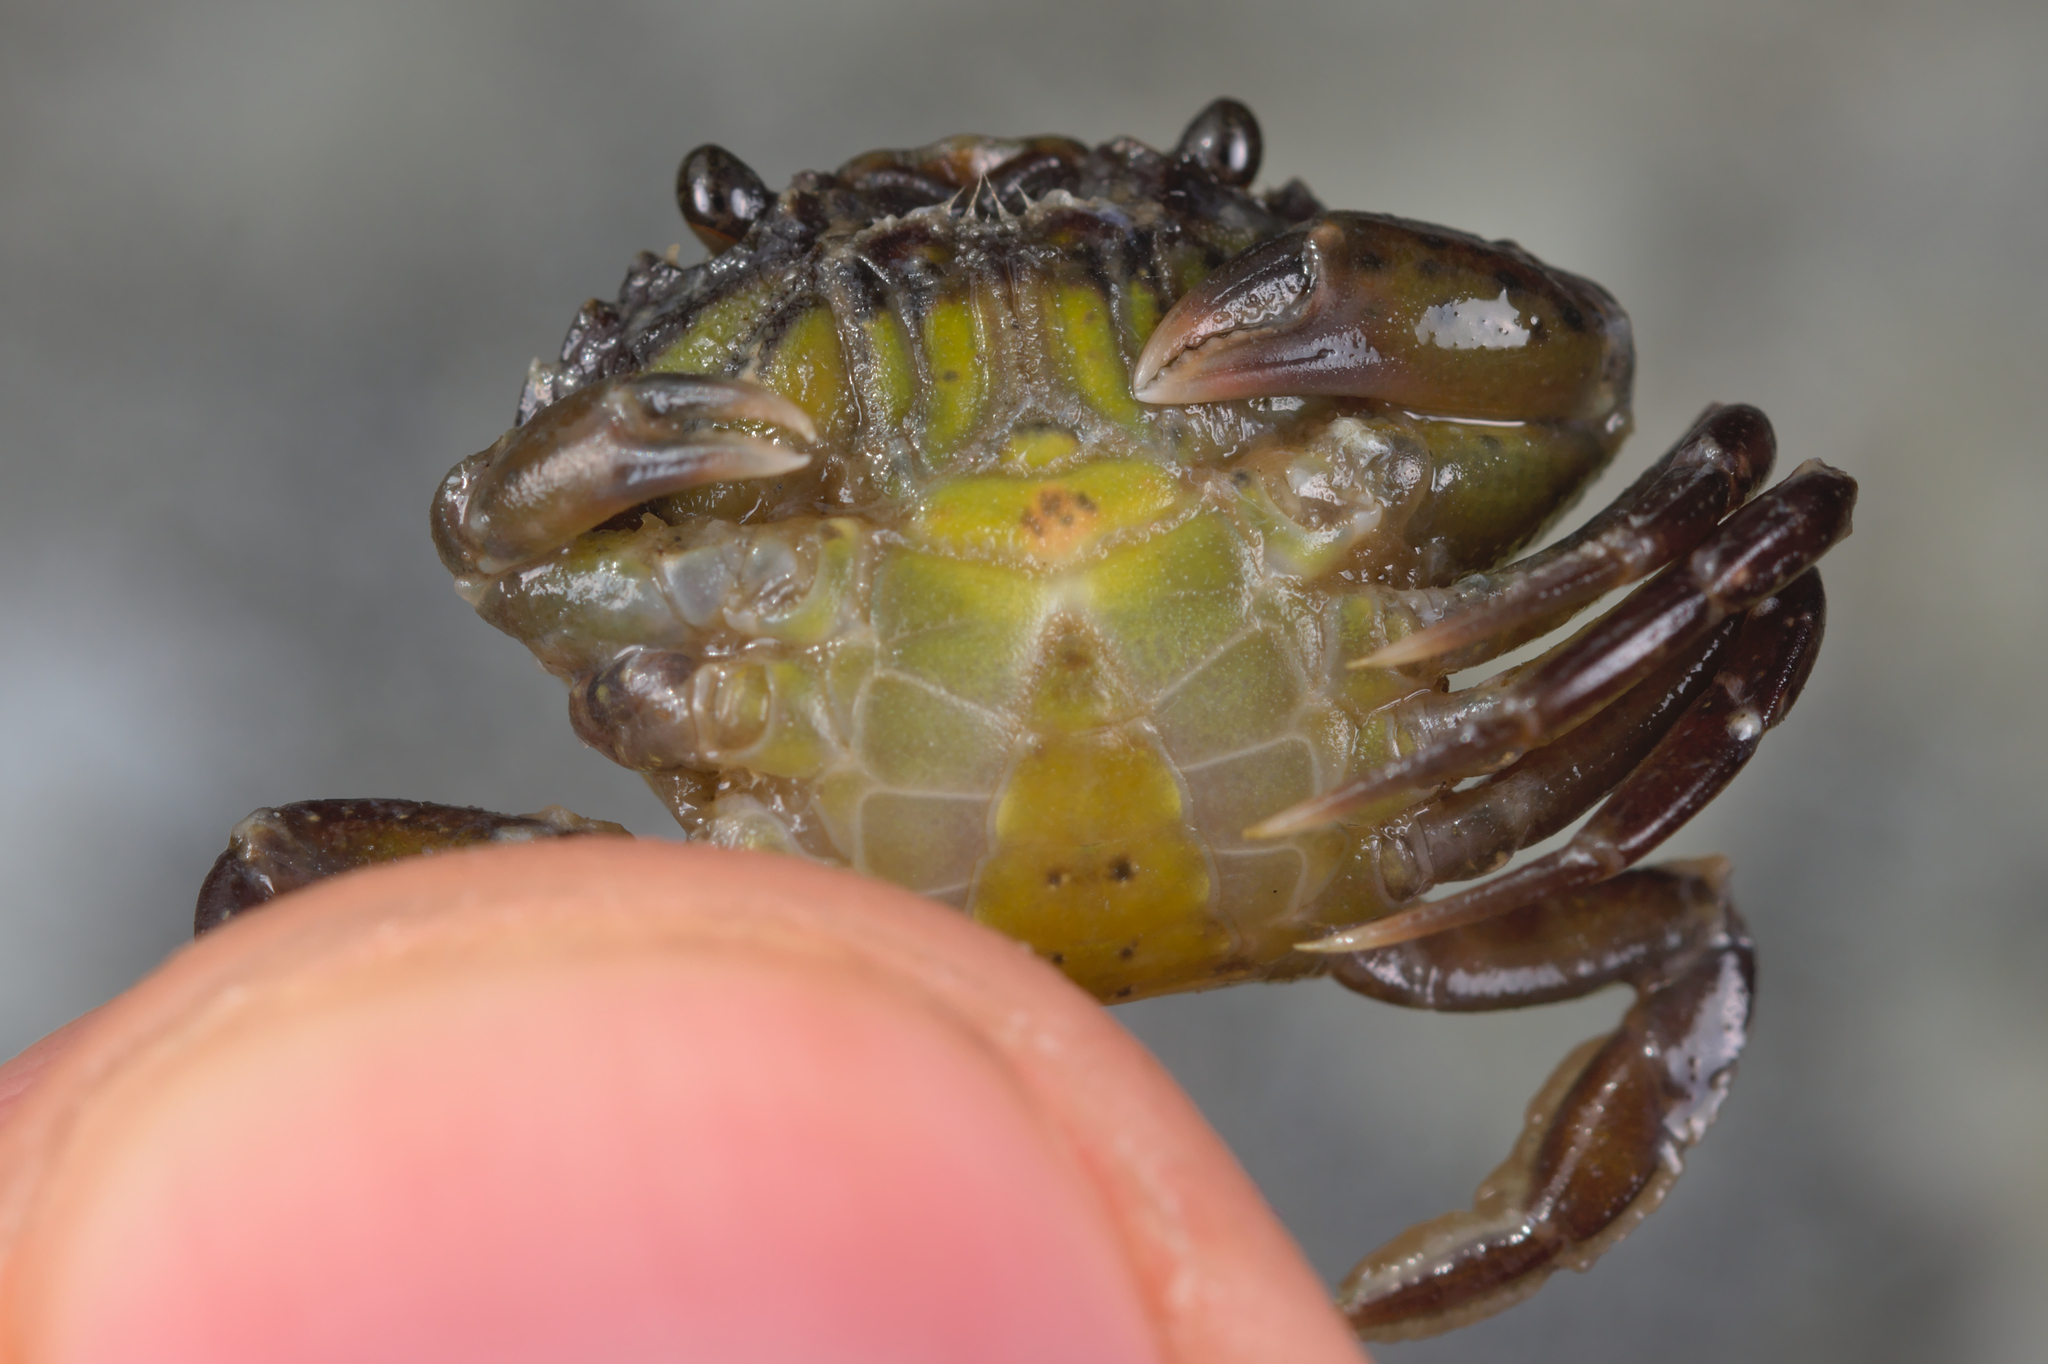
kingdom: Animalia
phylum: Arthropoda
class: Malacostraca
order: Decapoda
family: Carcinidae
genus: Carcinus
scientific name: Carcinus maenas
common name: European green crab
